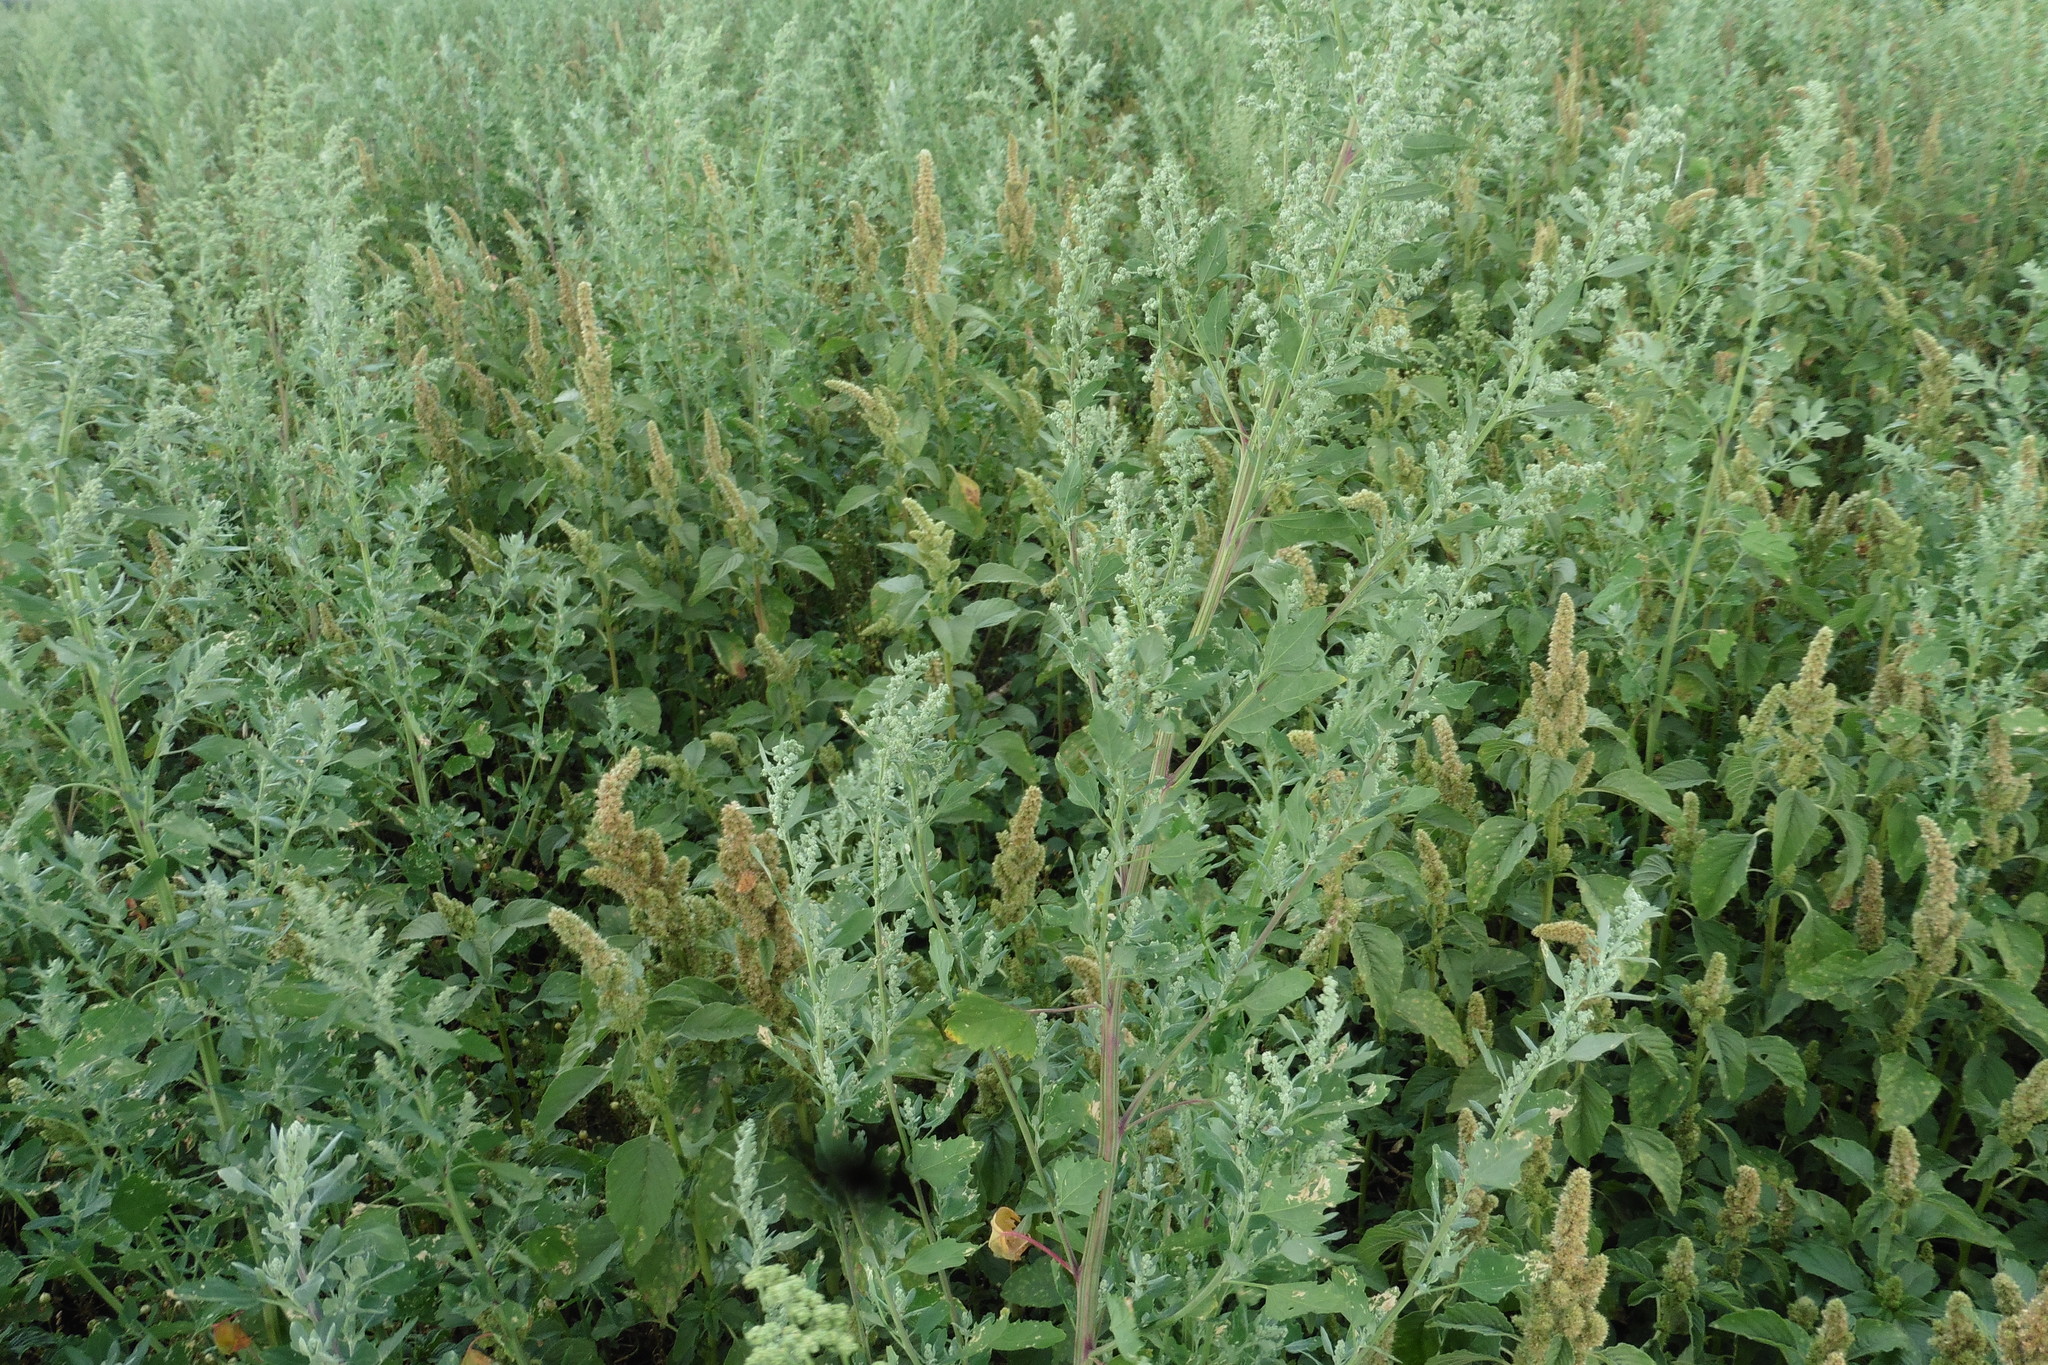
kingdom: Plantae
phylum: Tracheophyta
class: Magnoliopsida
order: Caryophyllales
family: Amaranthaceae
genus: Chenopodium
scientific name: Chenopodium album
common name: Fat-hen
